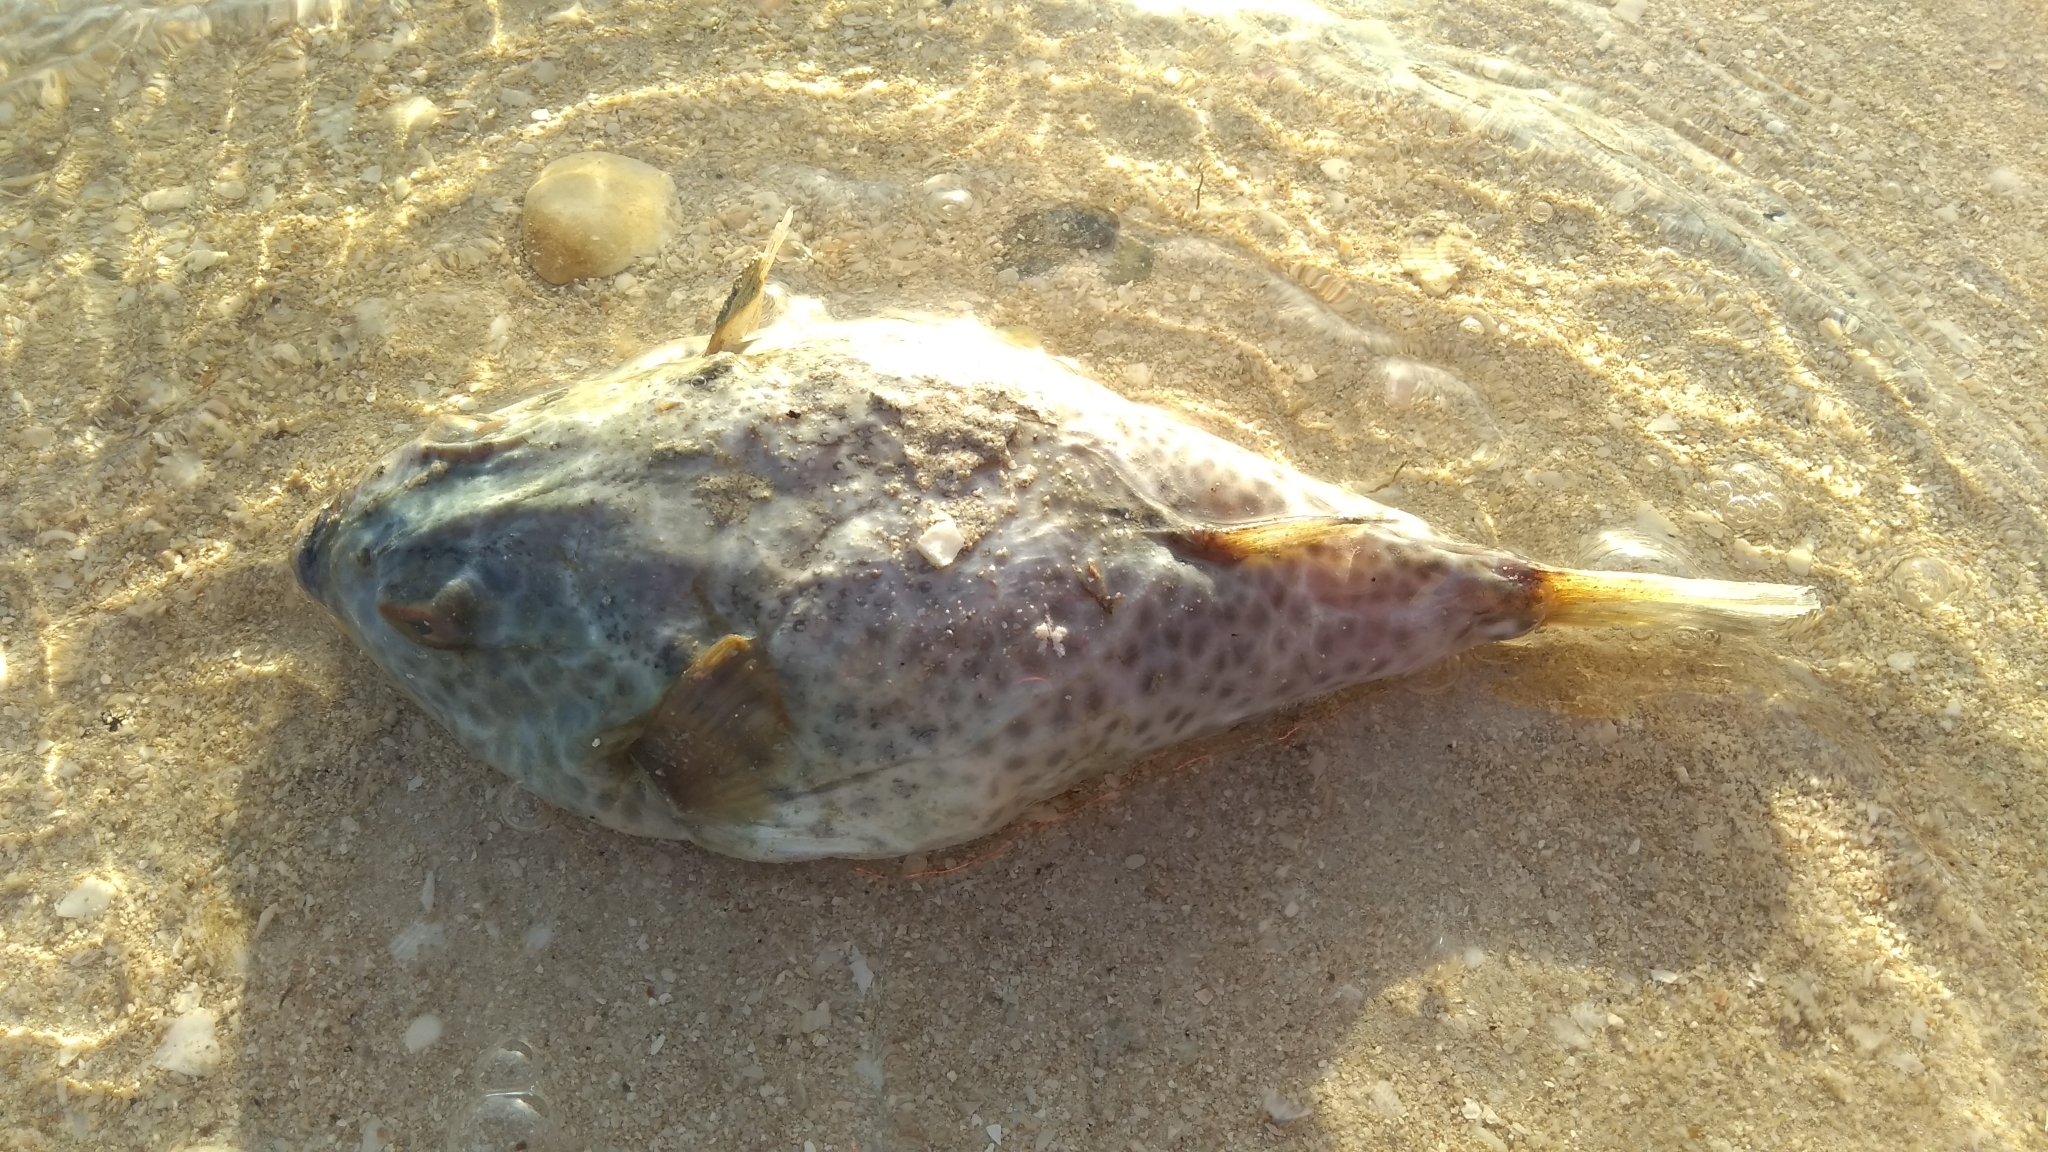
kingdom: Animalia
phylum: Chordata
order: Tetraodontiformes
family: Tetraodontidae
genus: Sphoeroides
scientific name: Sphoeroides testudineus
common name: Checkered puffer
